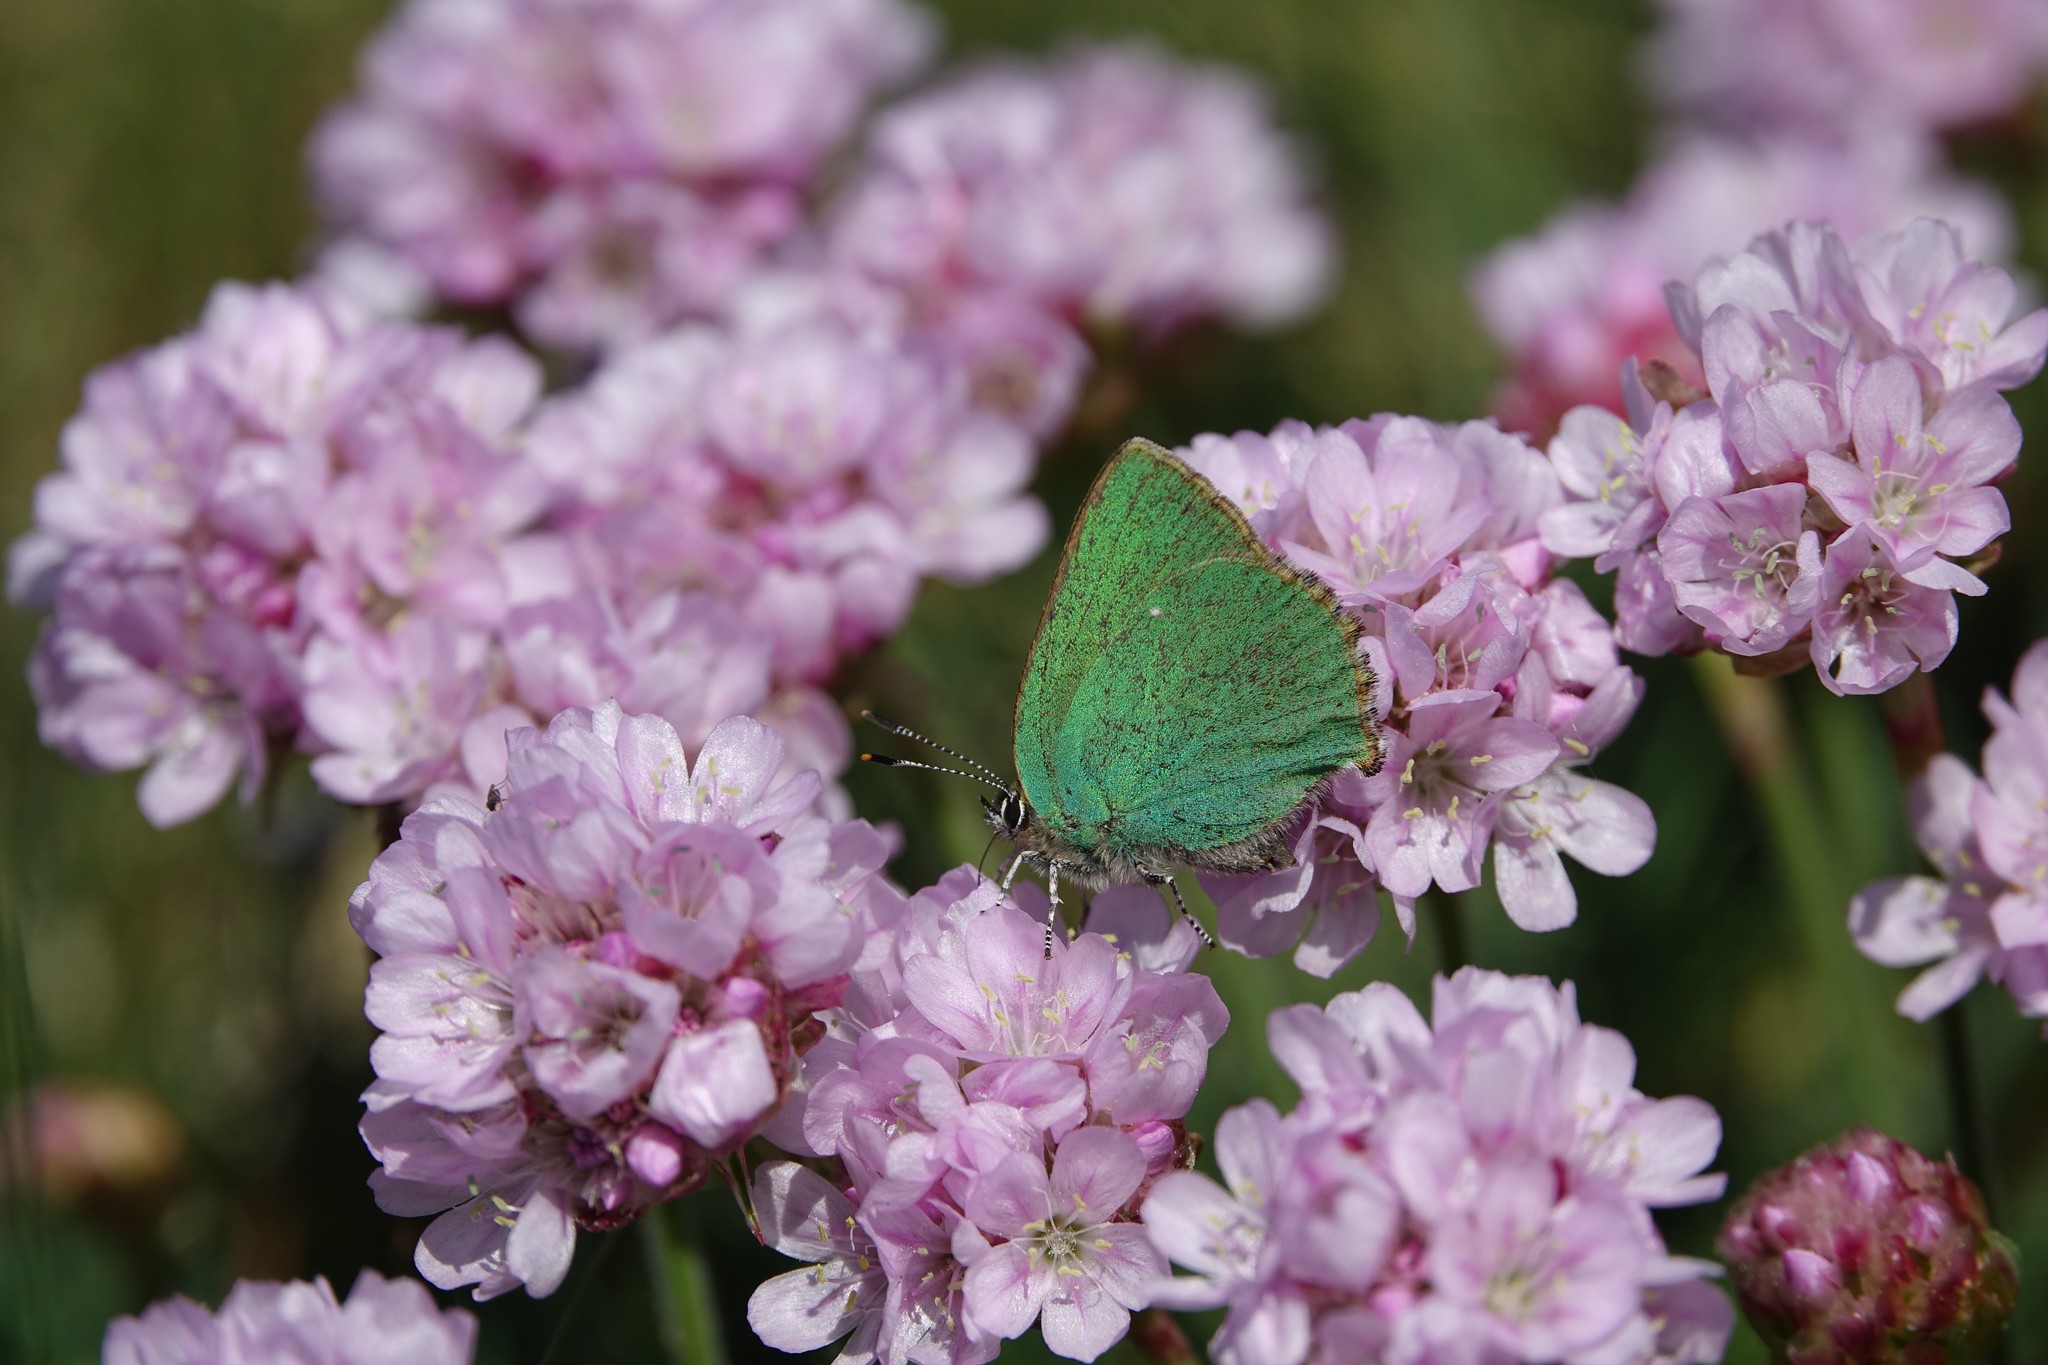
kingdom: Animalia
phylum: Arthropoda
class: Insecta
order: Lepidoptera
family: Lycaenidae
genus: Callophrys
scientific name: Callophrys rubi
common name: Green hairstreak
